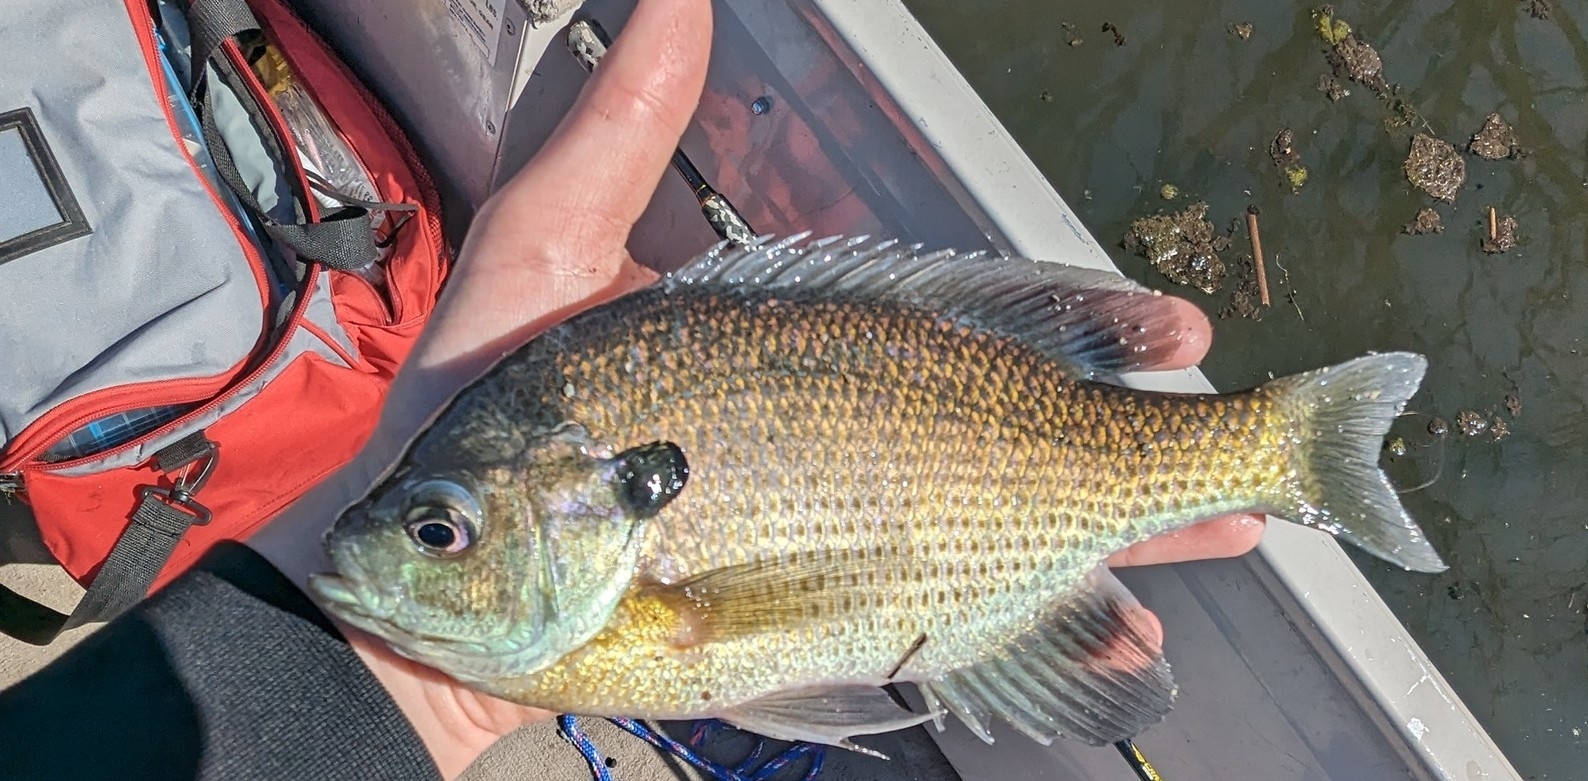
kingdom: Animalia
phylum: Chordata
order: Perciformes
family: Centrarchidae
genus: Lepomis
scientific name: Lepomis macrochirus
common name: Bluegill
